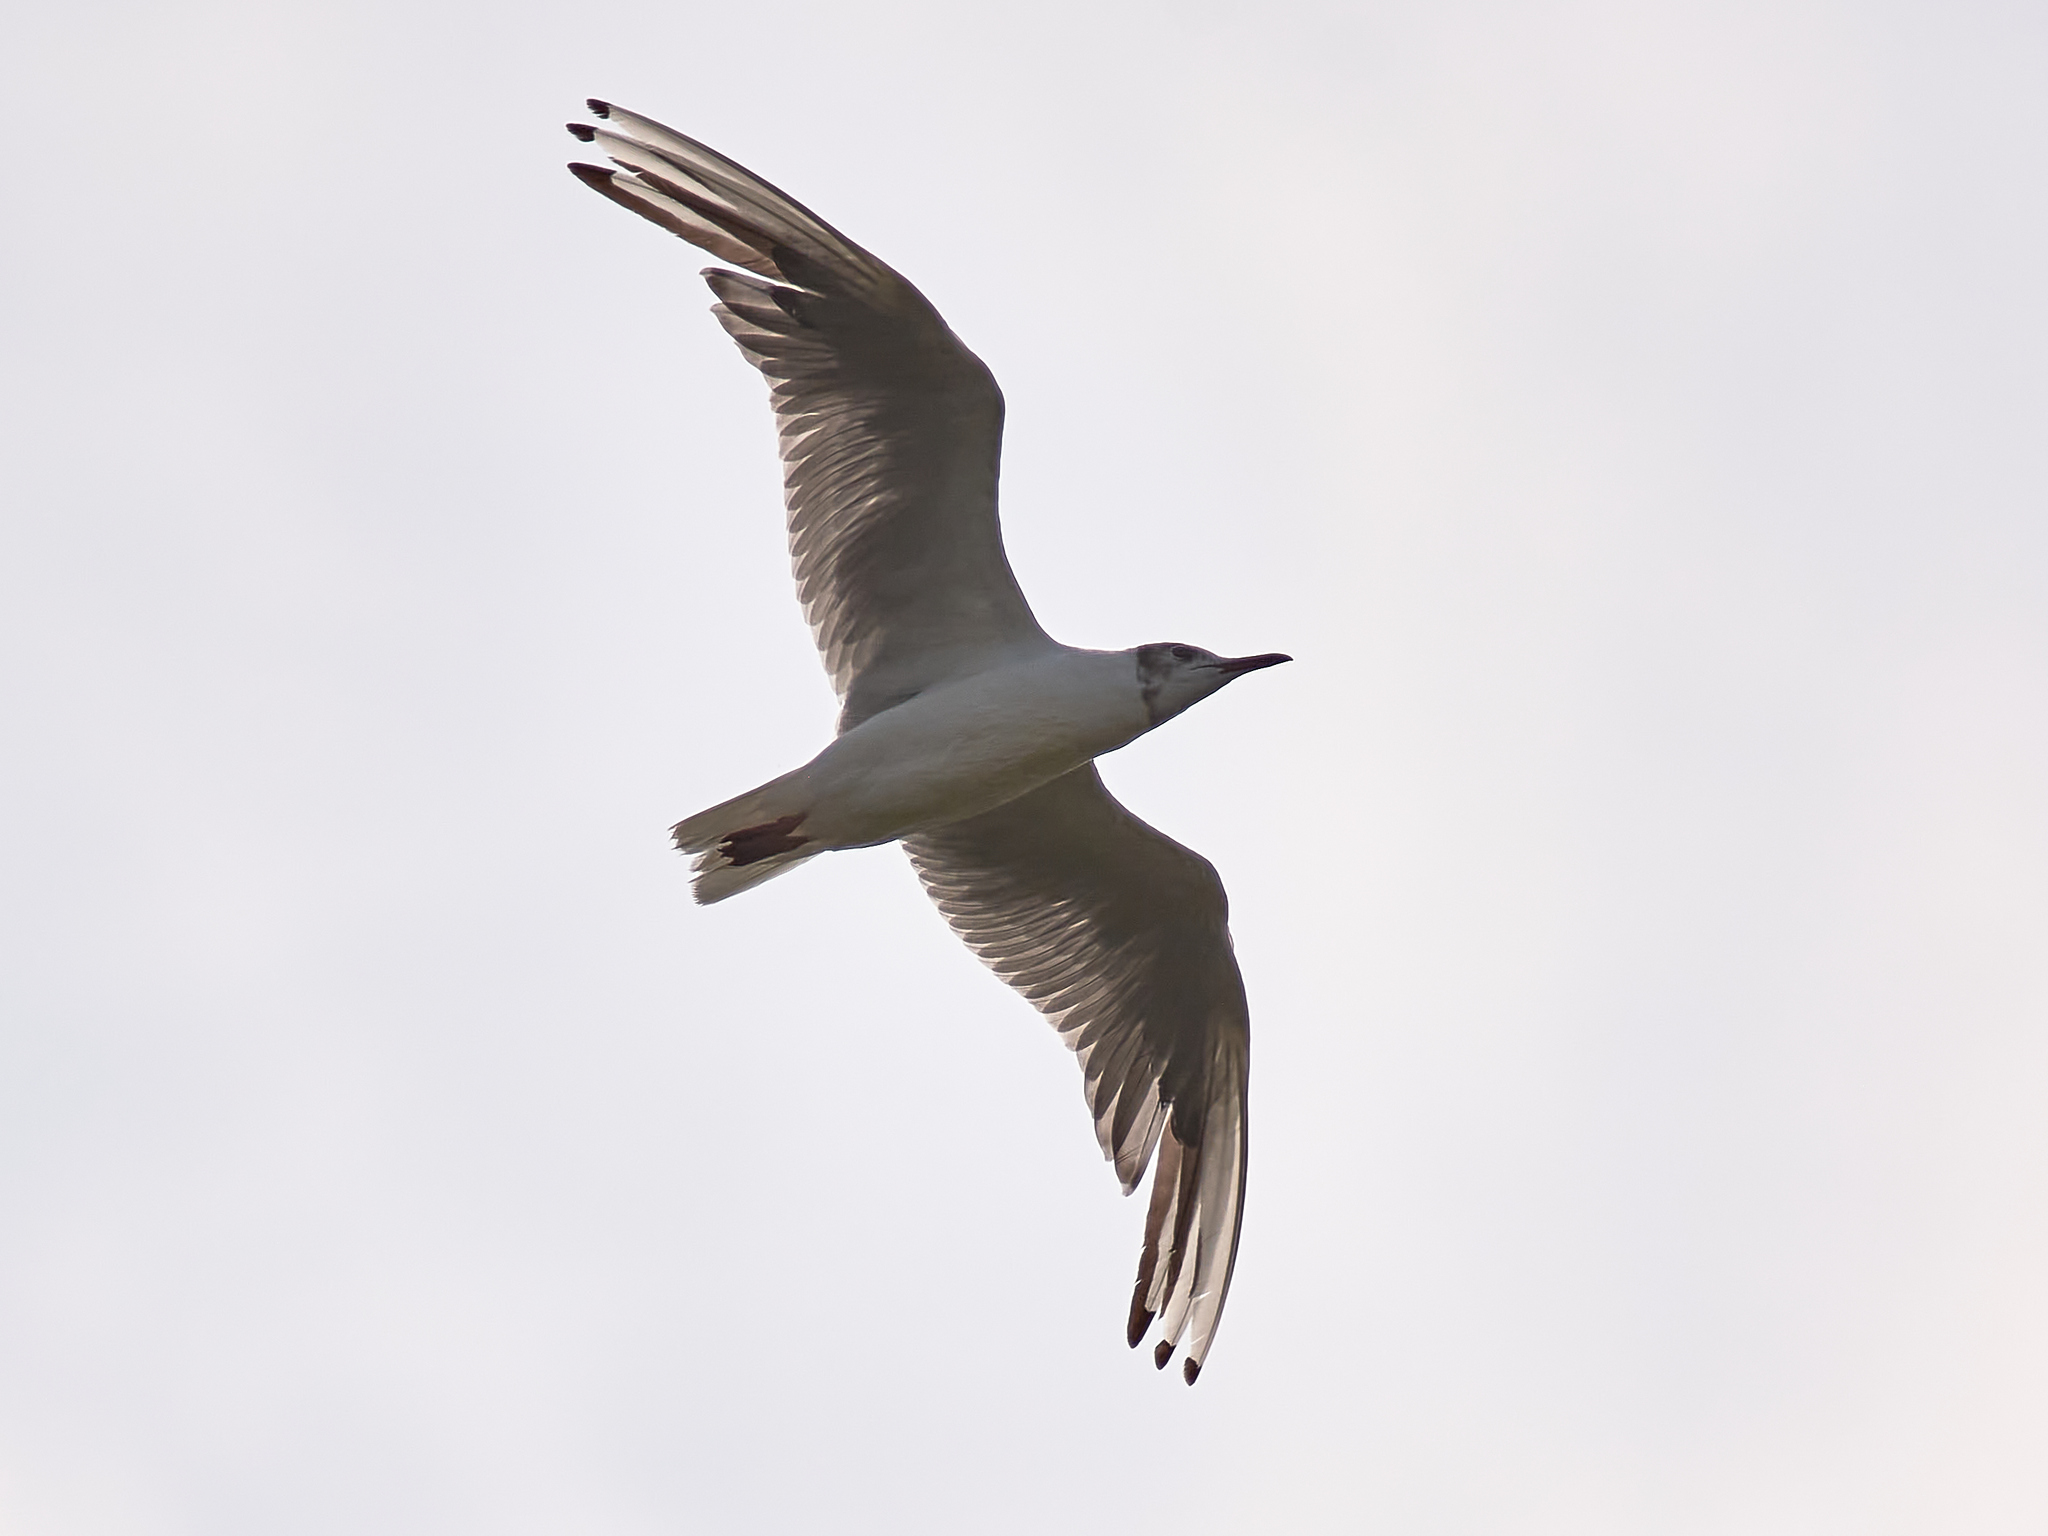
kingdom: Animalia
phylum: Chordata
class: Aves
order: Charadriiformes
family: Laridae
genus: Chroicocephalus
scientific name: Chroicocephalus ridibundus
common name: Black-headed gull
